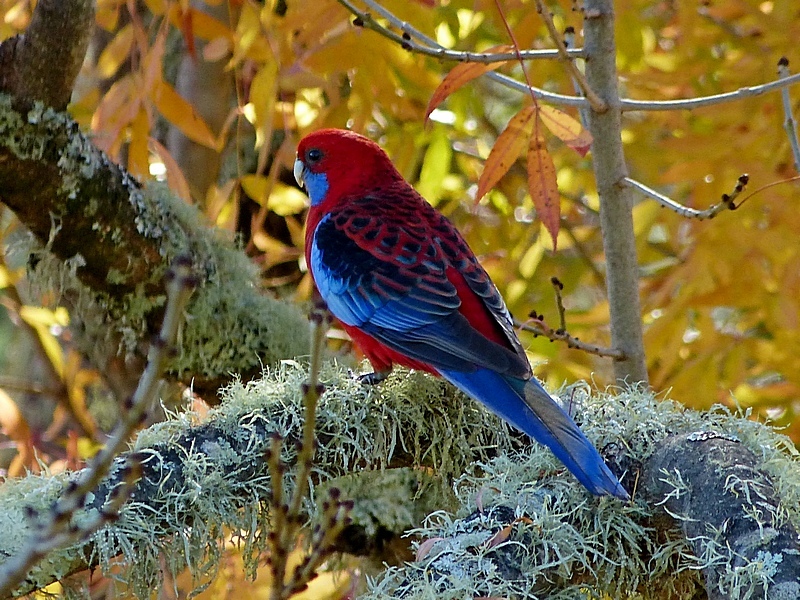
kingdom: Animalia
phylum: Chordata
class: Aves
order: Psittaciformes
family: Psittacidae
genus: Platycercus
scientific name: Platycercus elegans
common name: Crimson rosella
